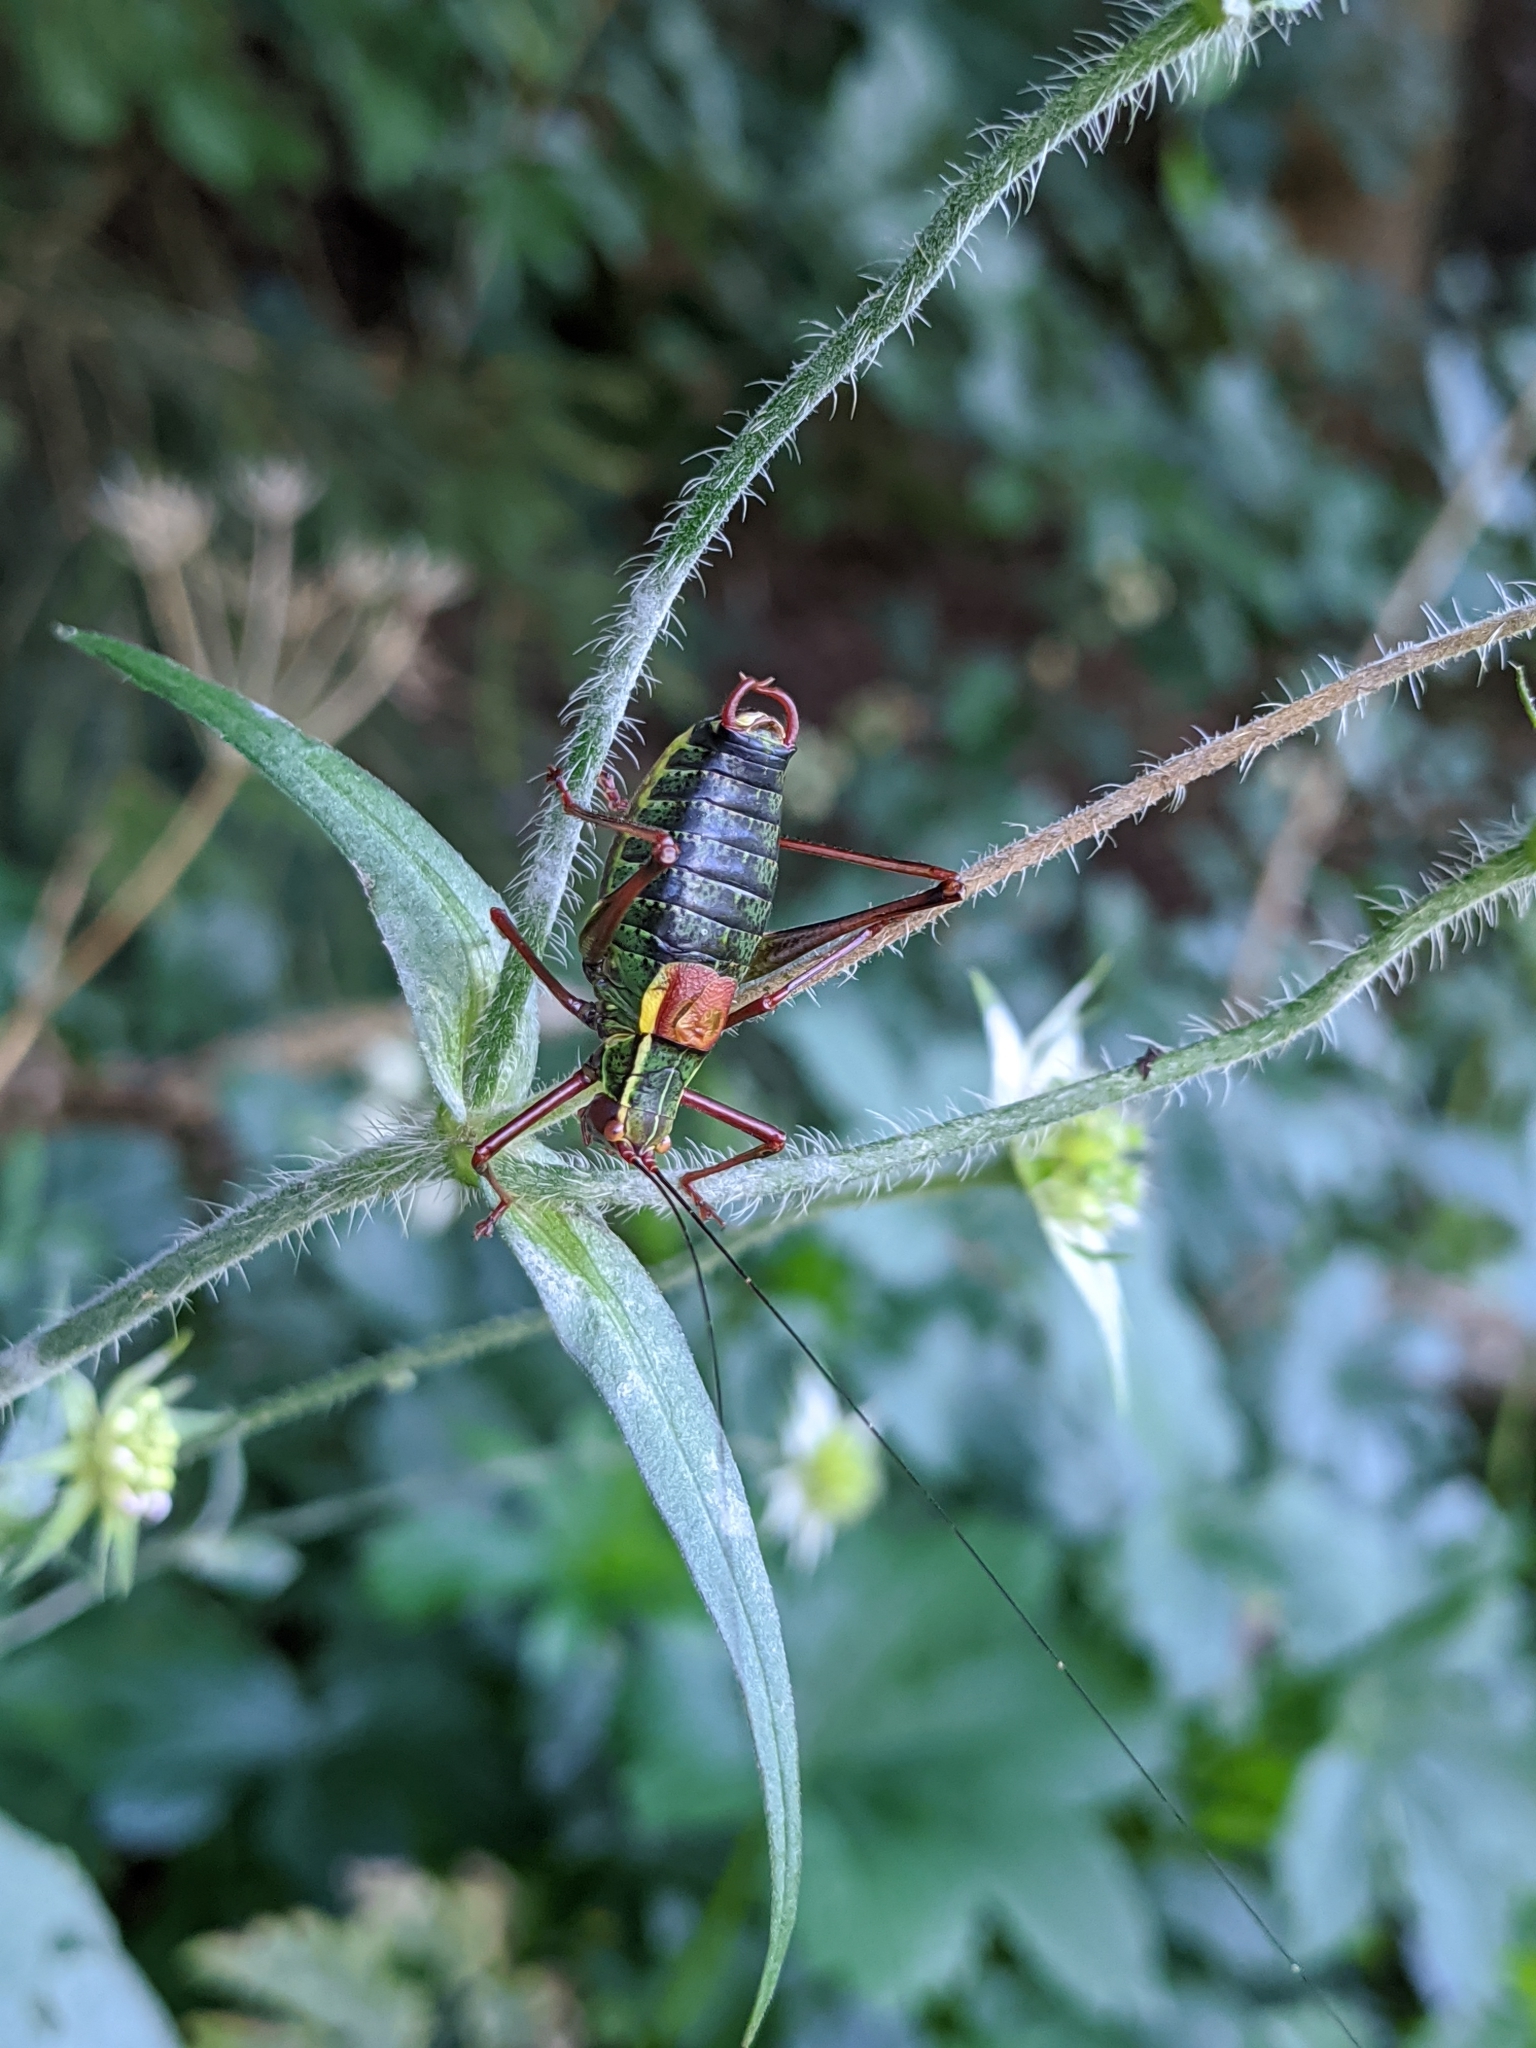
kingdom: Animalia
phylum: Arthropoda
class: Insecta
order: Orthoptera
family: Tettigoniidae
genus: Barbitistes
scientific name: Barbitistes serricauda
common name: Saw-tailed bush-cricket
